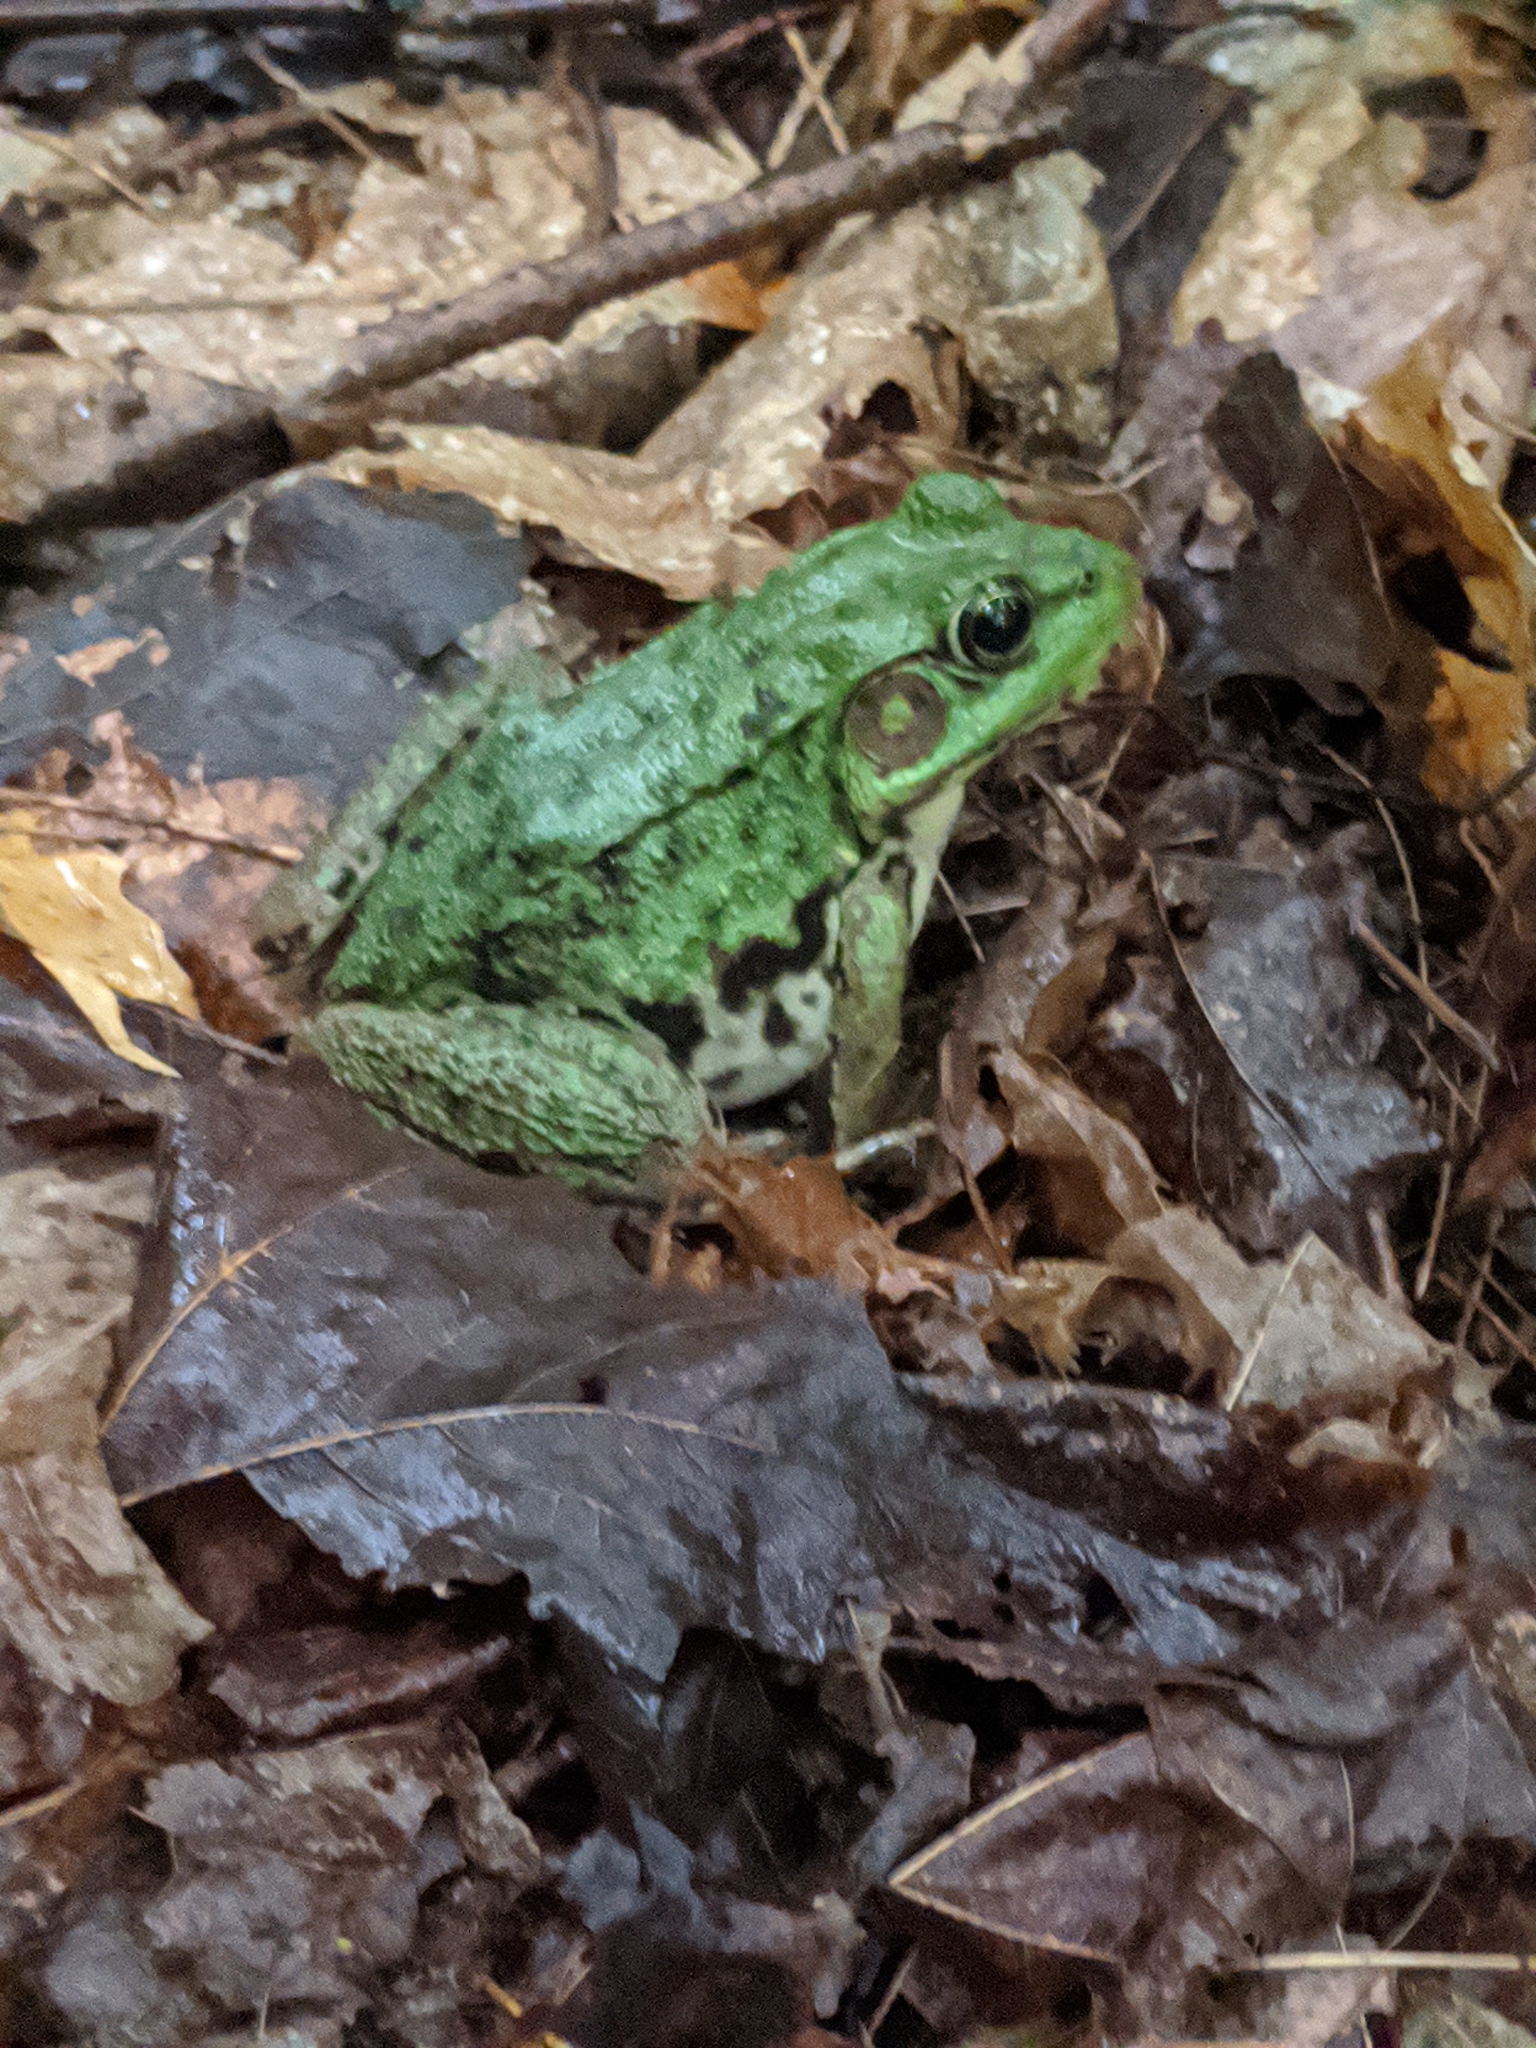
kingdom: Animalia
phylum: Chordata
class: Amphibia
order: Anura
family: Ranidae
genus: Lithobates
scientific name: Lithobates clamitans
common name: Green frog
